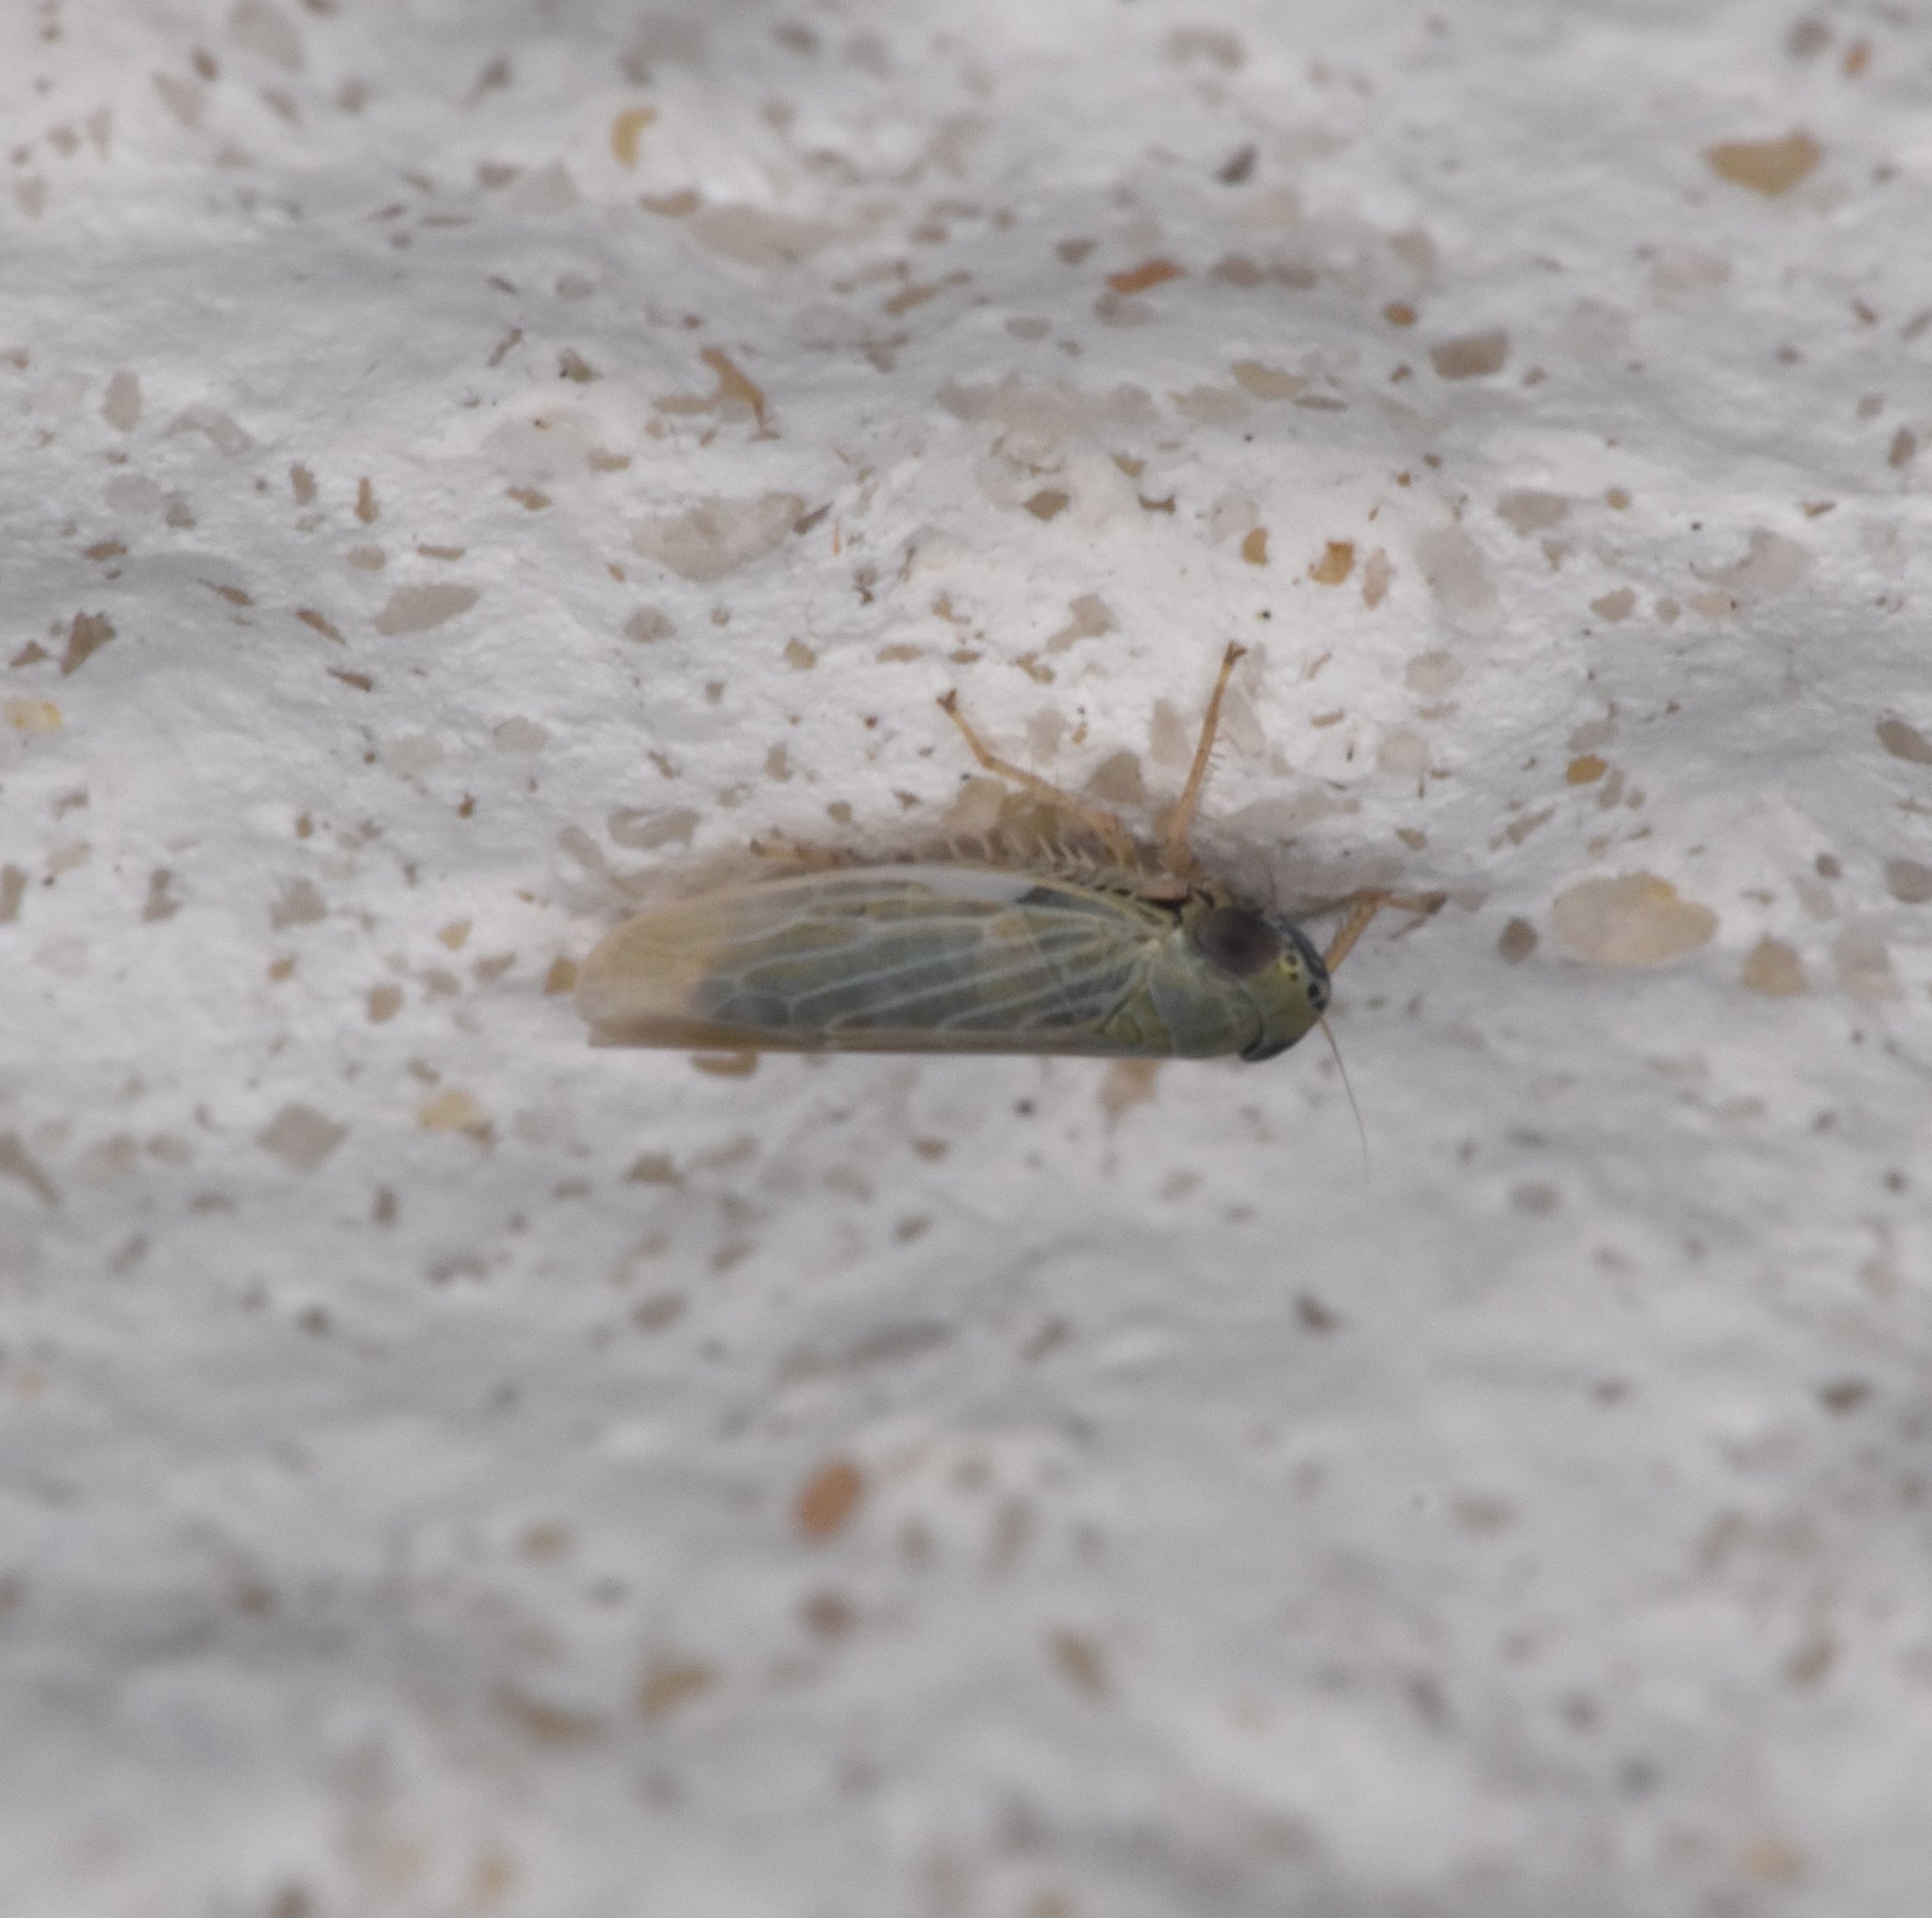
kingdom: Animalia
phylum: Arthropoda
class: Insecta
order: Hemiptera
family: Cicadellidae
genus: Graminella
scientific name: Graminella nigrifrons
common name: Blackfaced leafhopper
